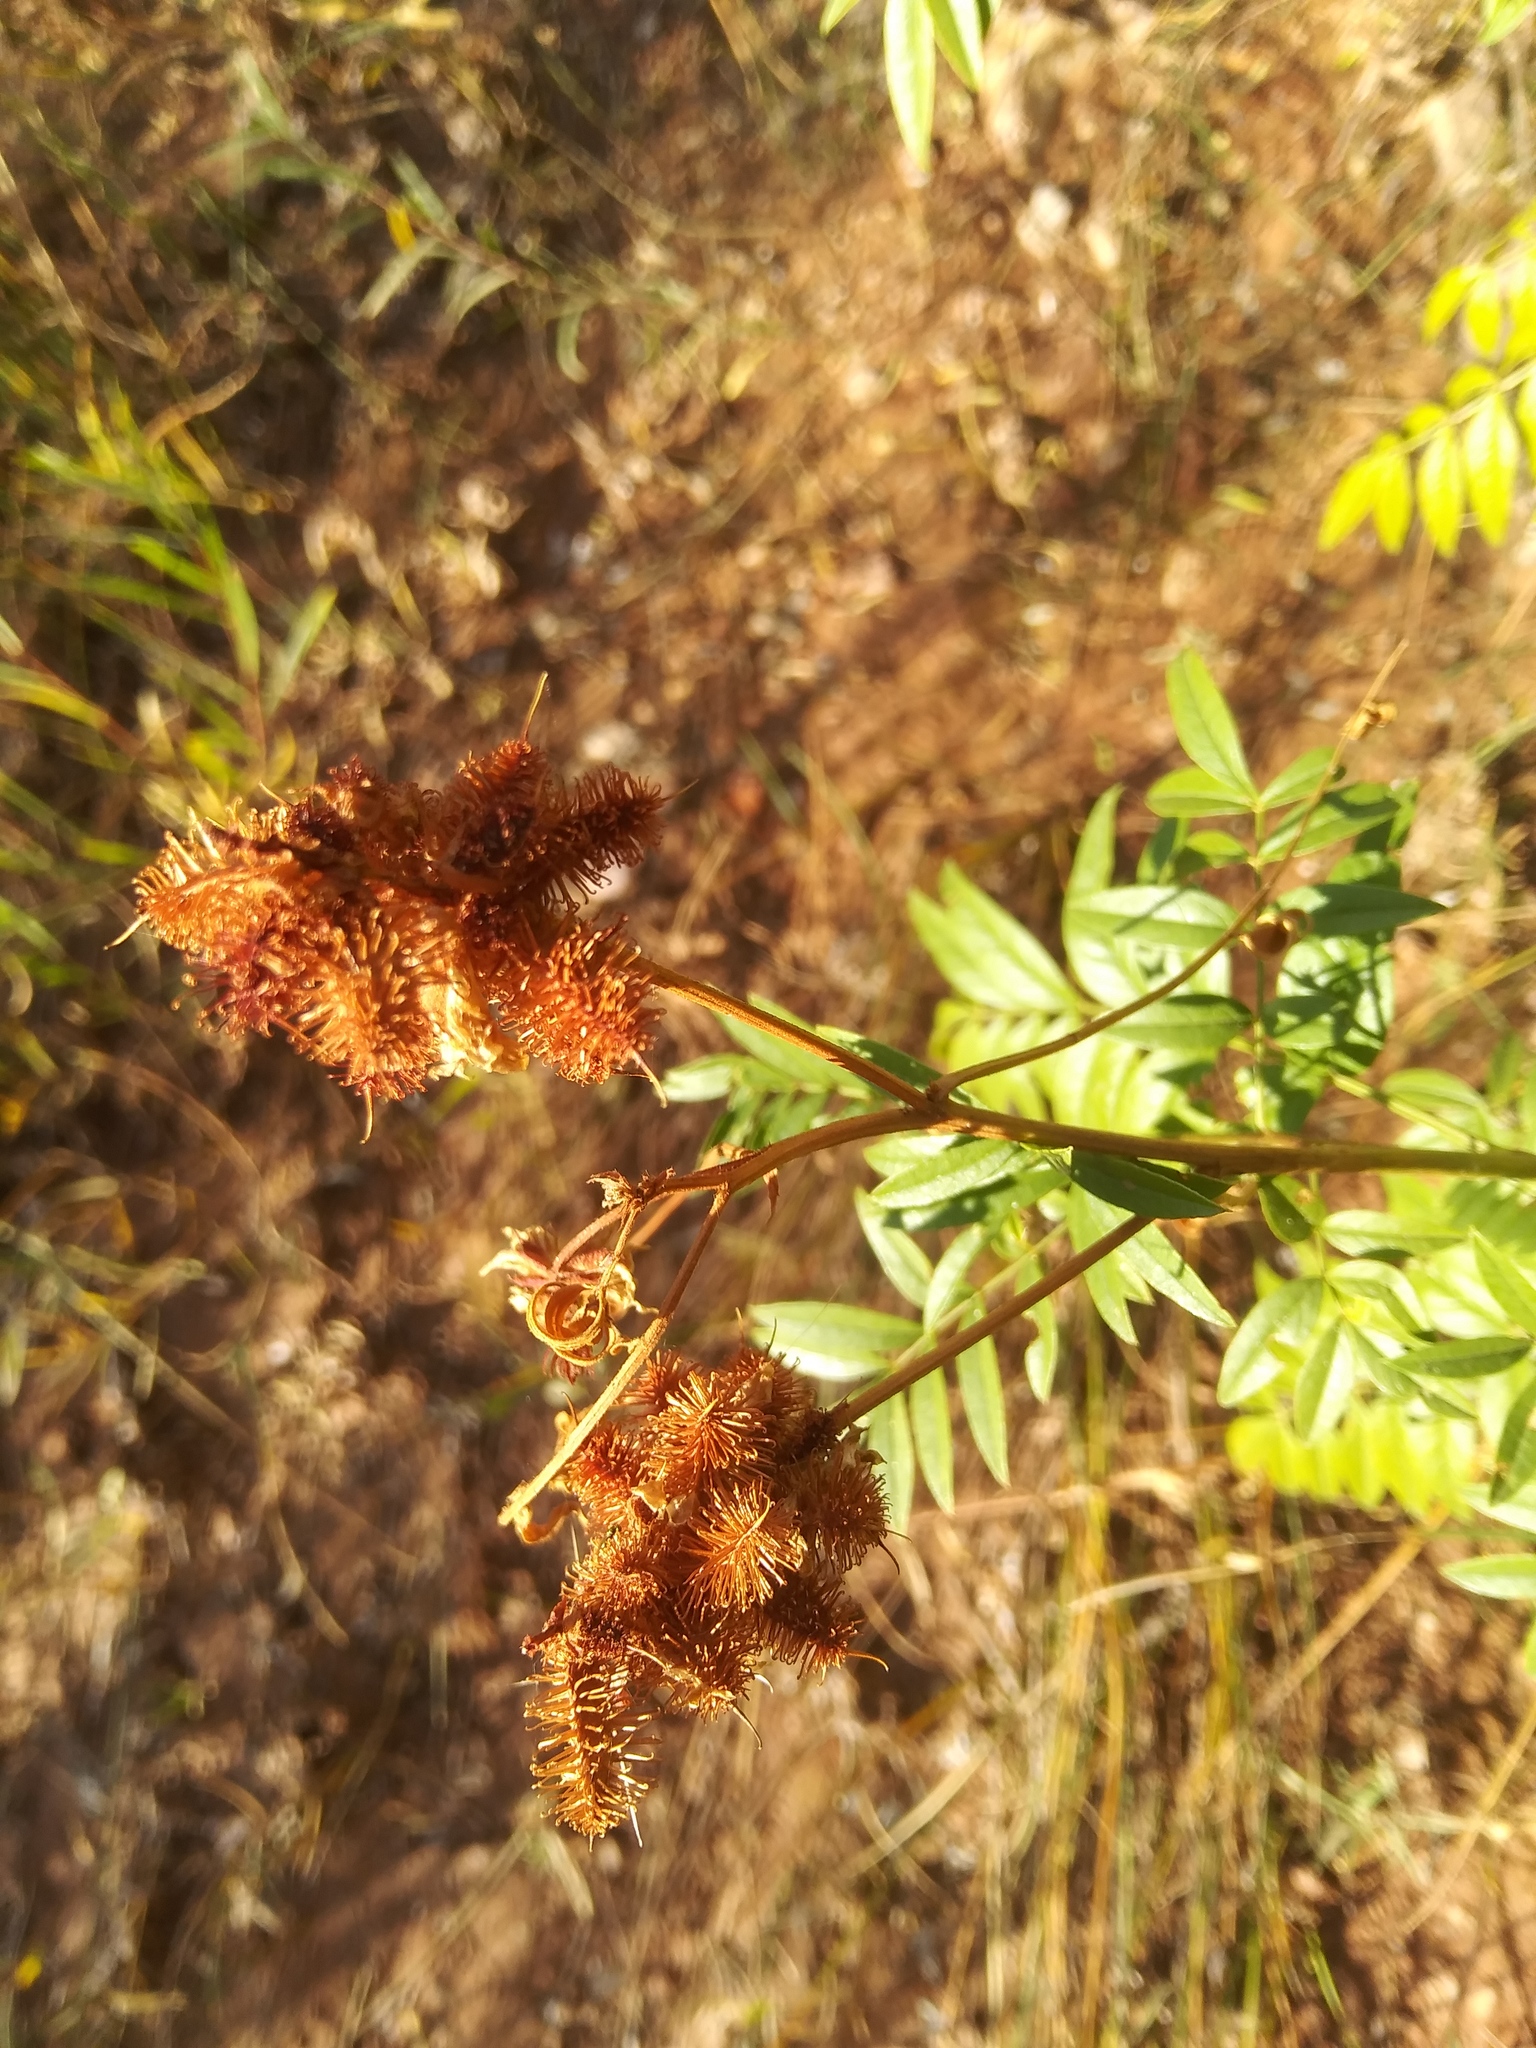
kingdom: Plantae
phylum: Tracheophyta
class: Magnoliopsida
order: Fabales
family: Fabaceae
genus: Glycyrrhiza
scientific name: Glycyrrhiza lepidota
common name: American liquorice
